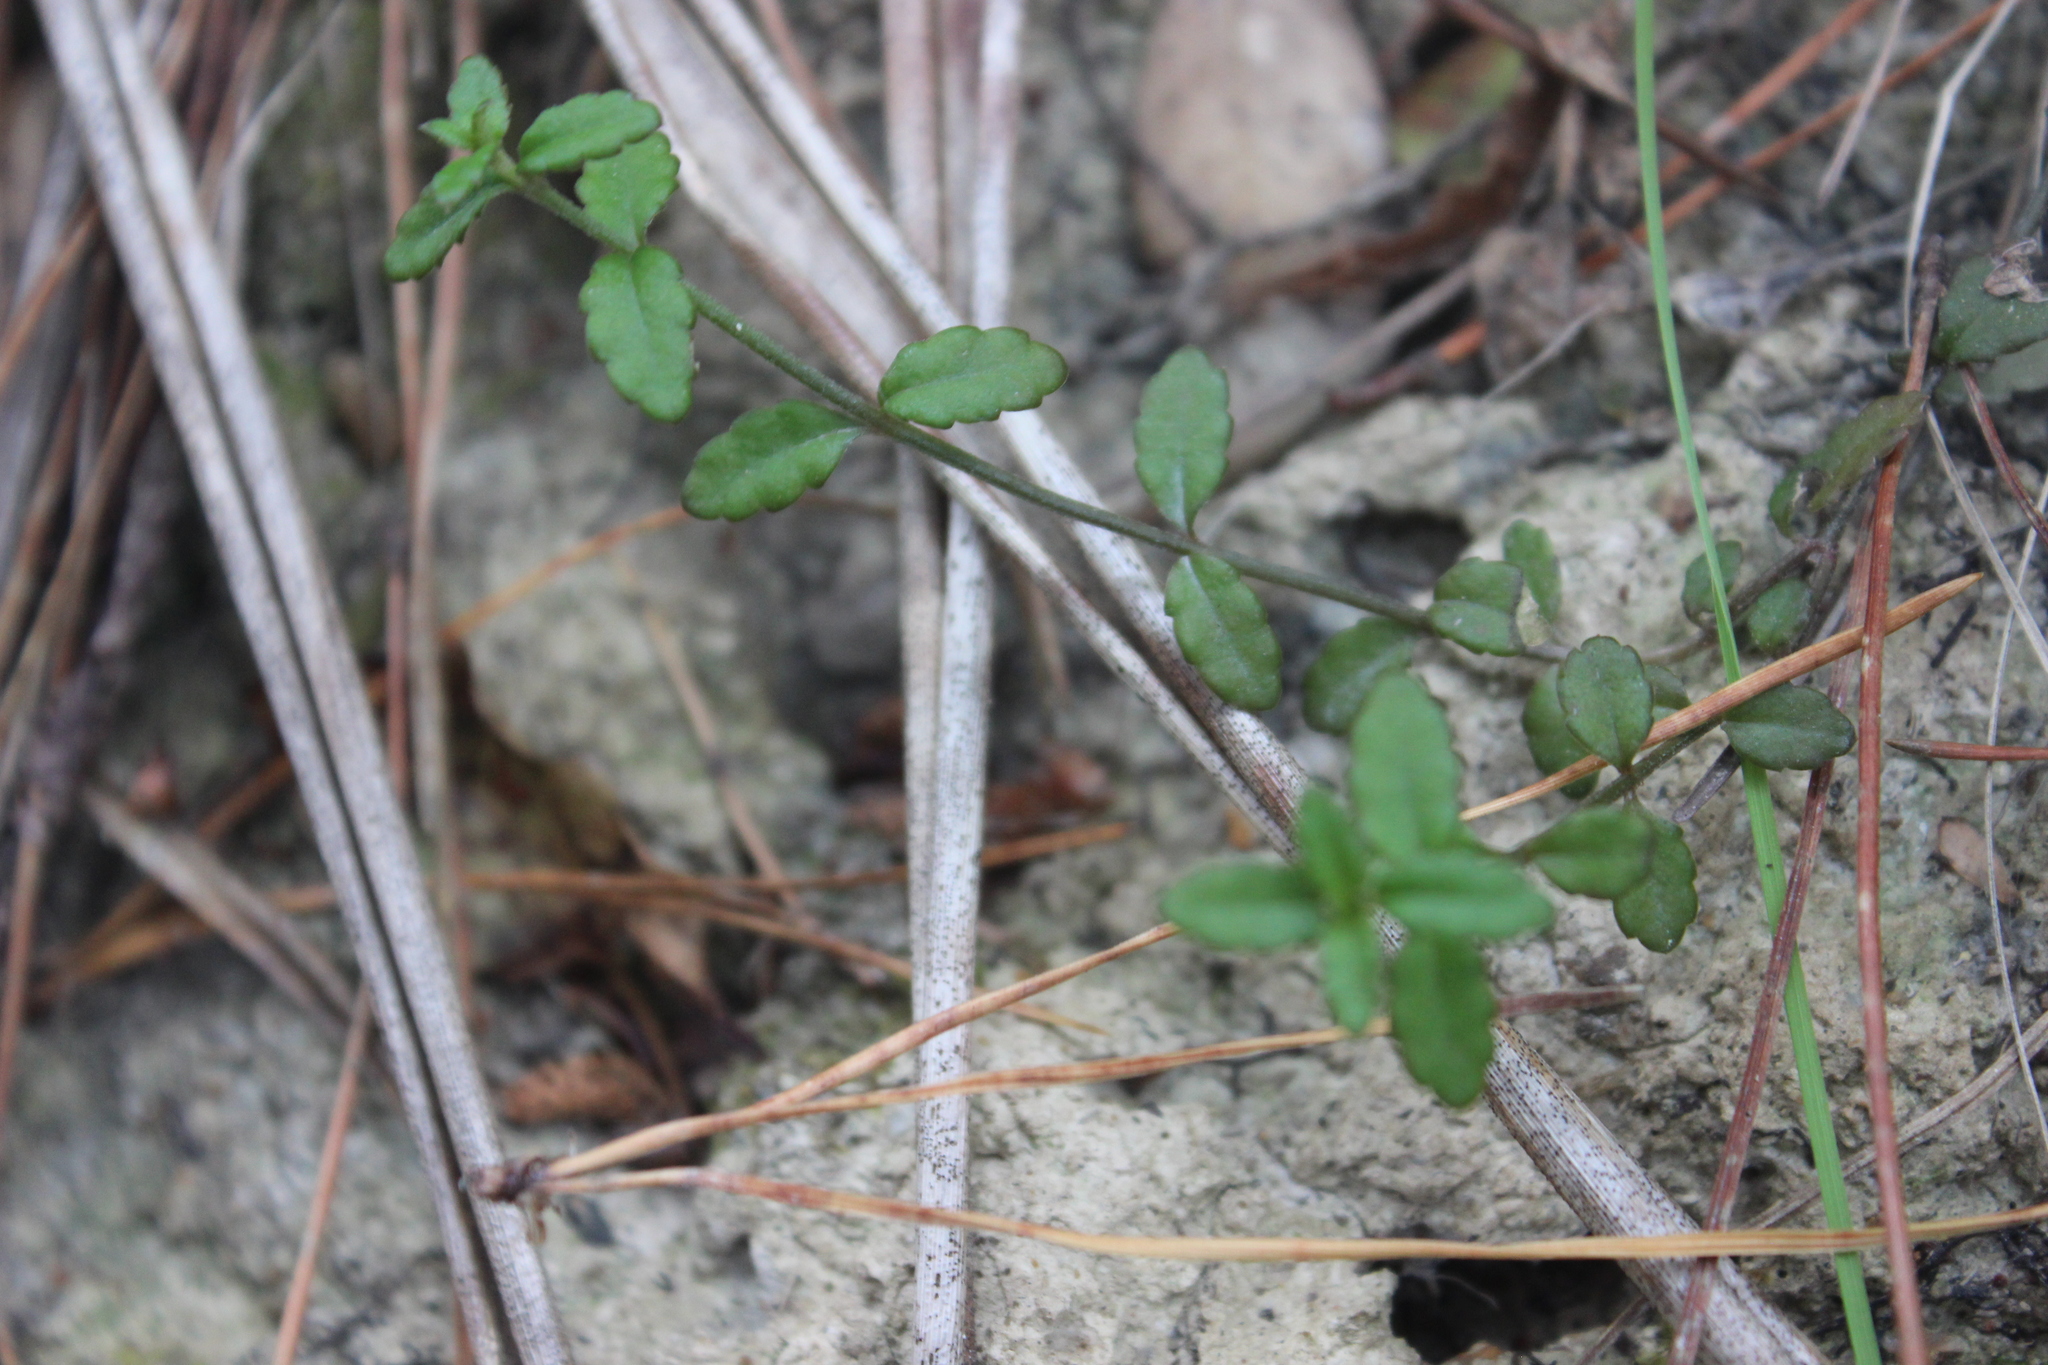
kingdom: Plantae
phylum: Tracheophyta
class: Magnoliopsida
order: Saxifragales
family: Haloragaceae
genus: Gonocarpus
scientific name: Gonocarpus incanus
